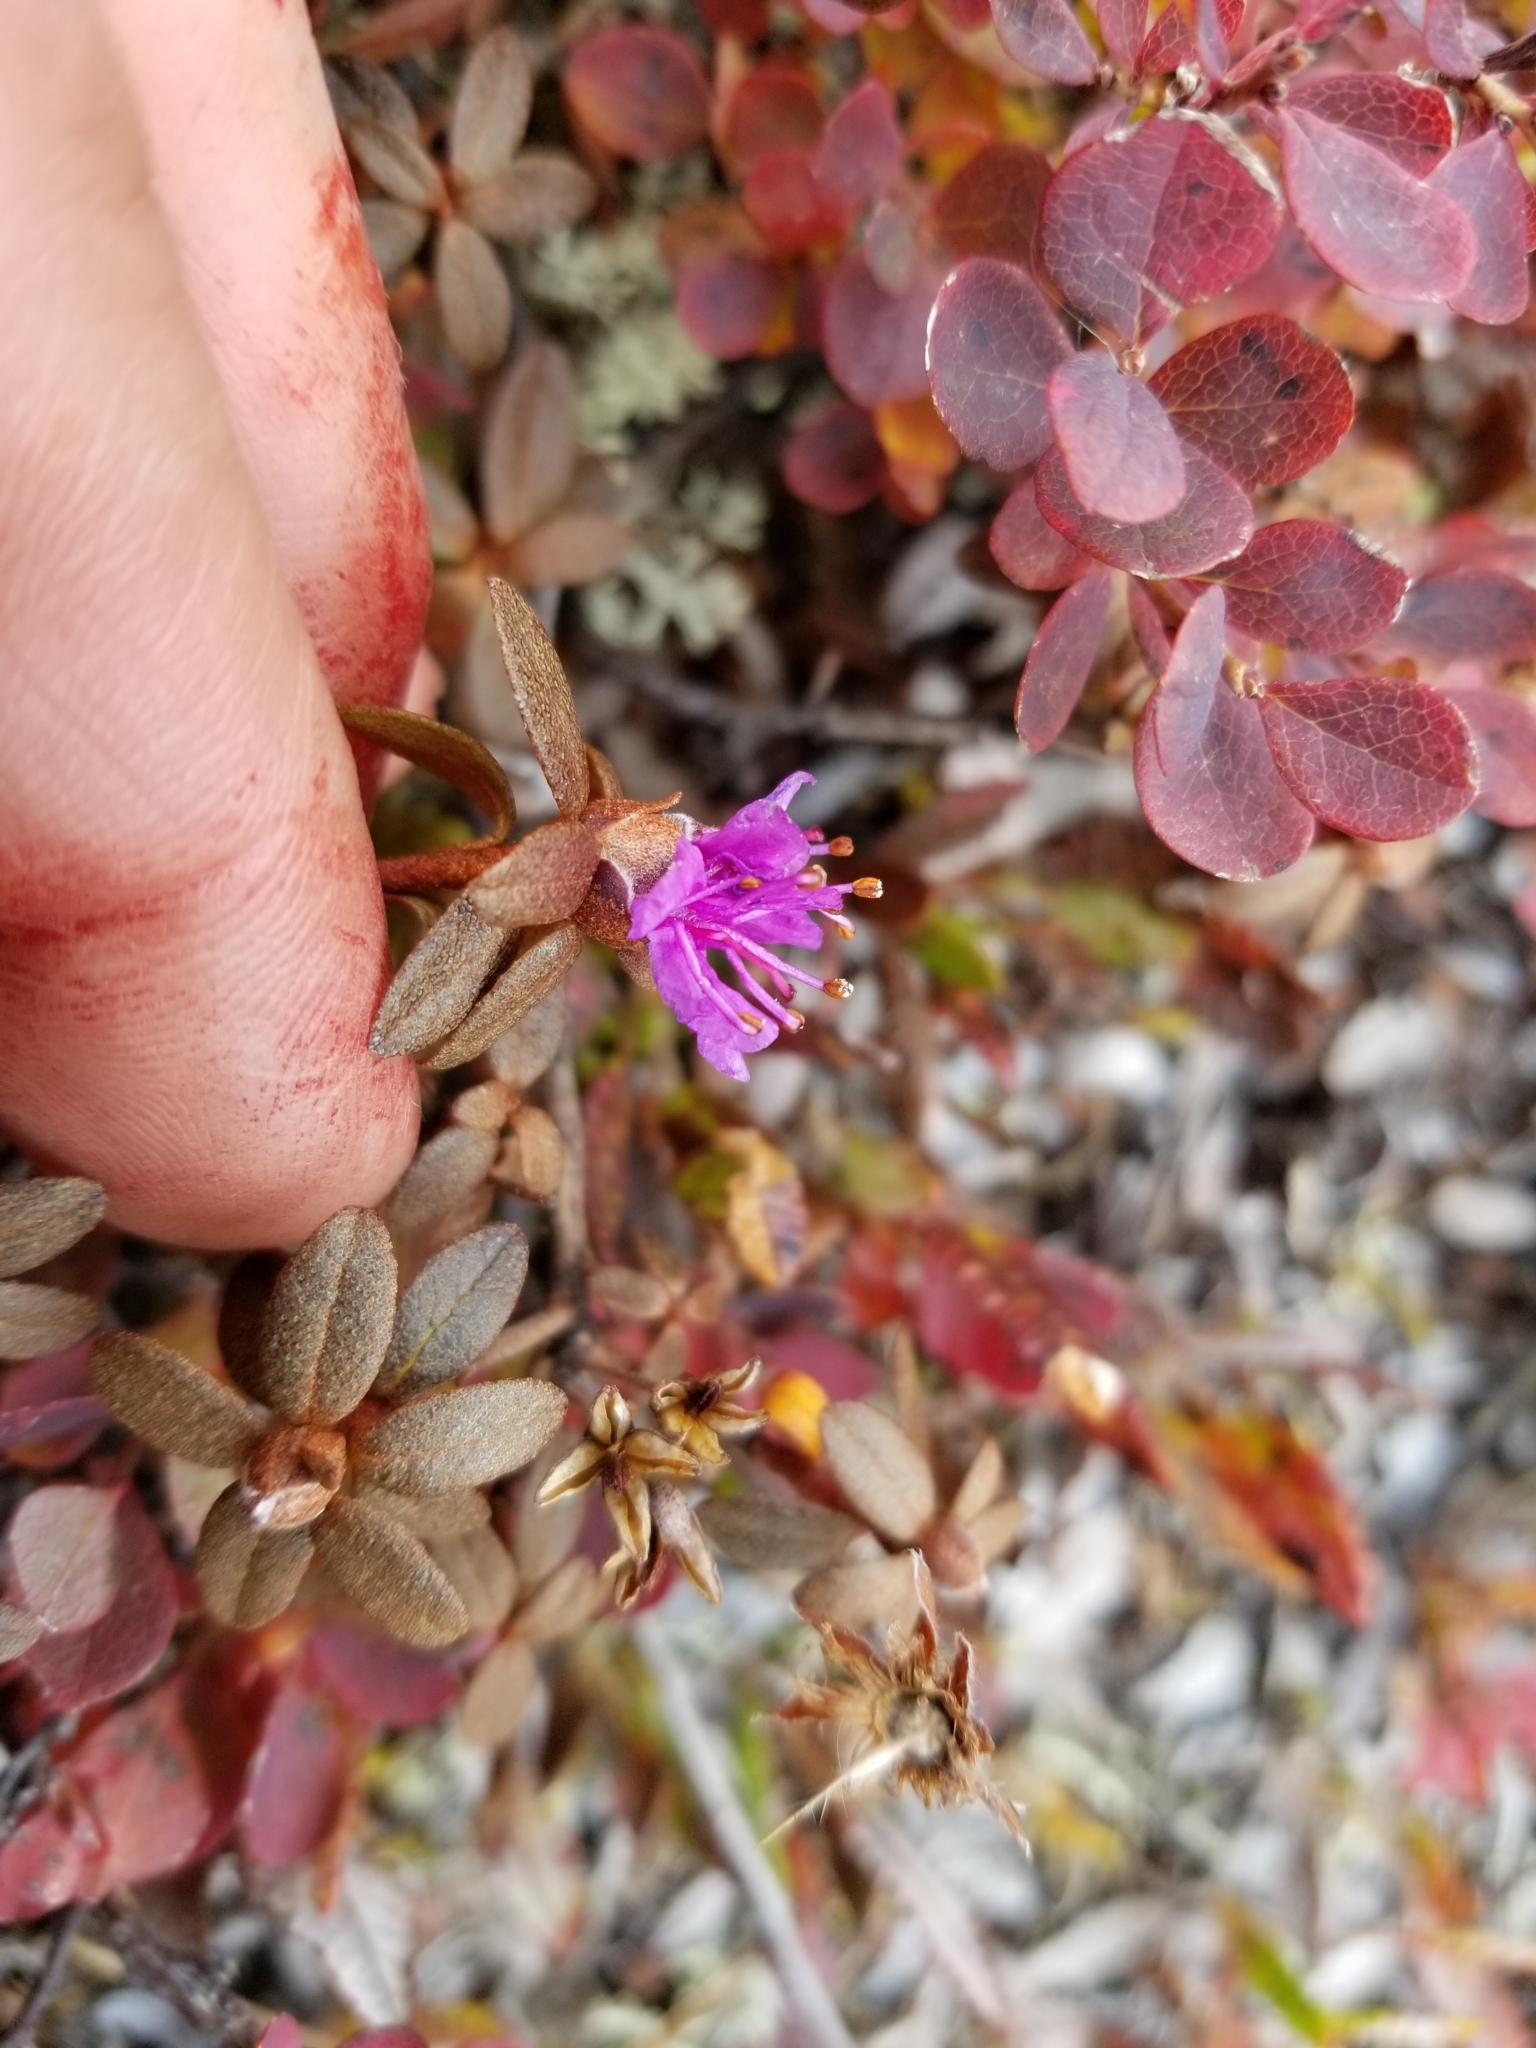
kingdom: Plantae
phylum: Tracheophyta
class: Magnoliopsida
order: Ericales
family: Ericaceae
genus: Rhododendron
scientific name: Rhododendron lapponicum
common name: Lapland rhododendron
